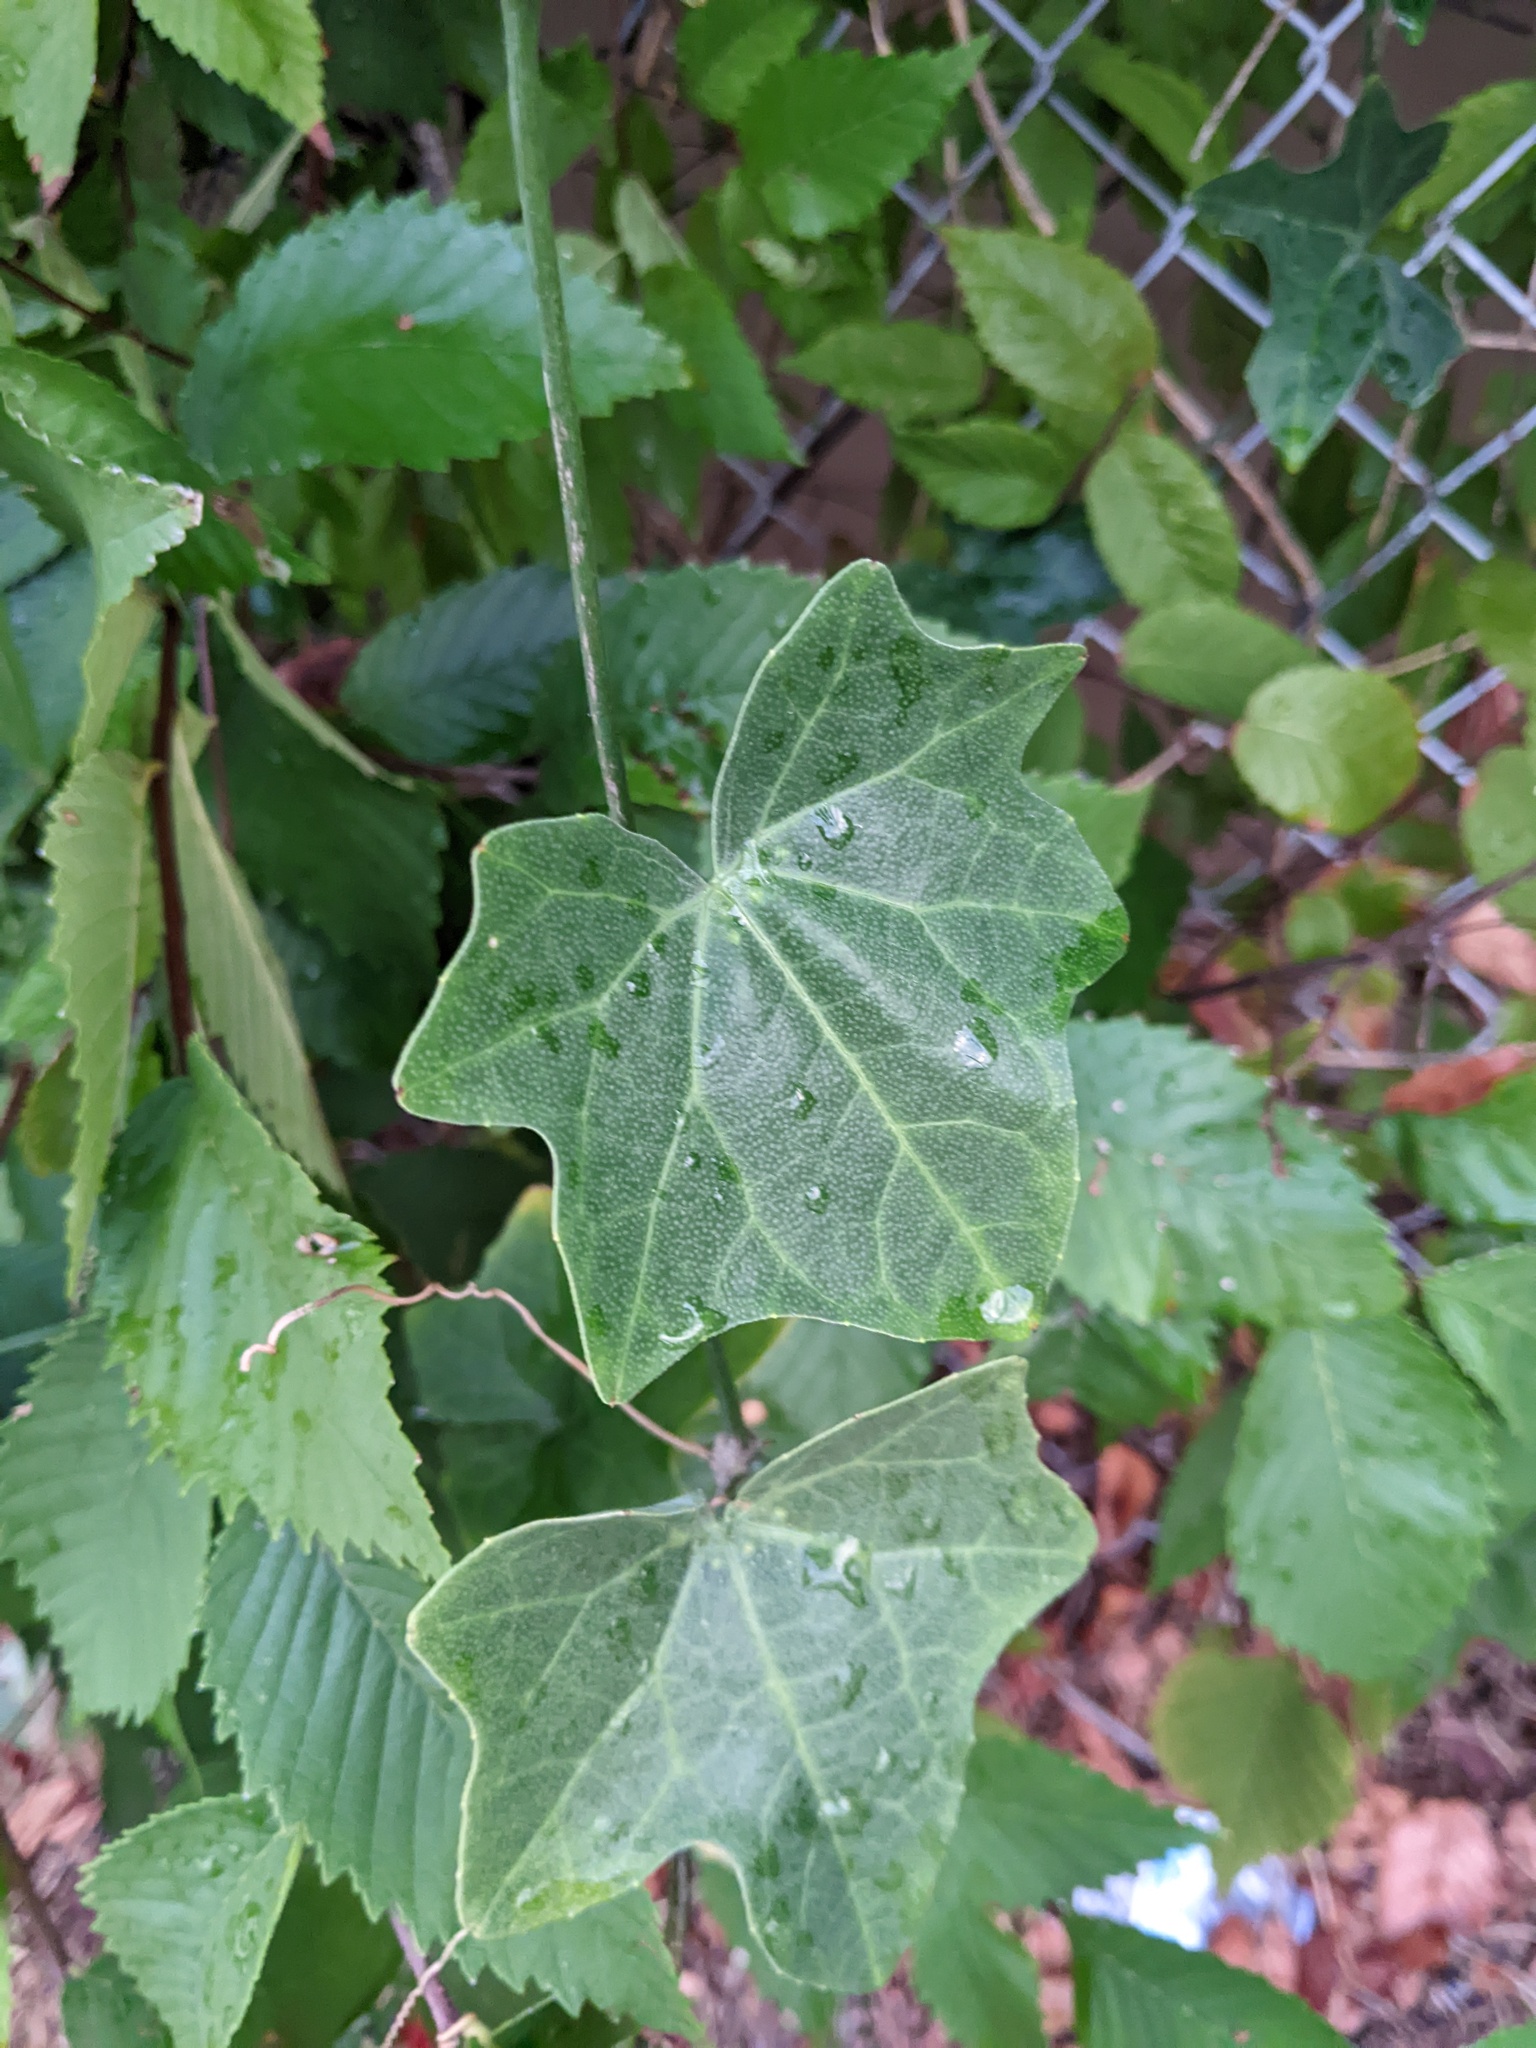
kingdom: Plantae
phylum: Tracheophyta
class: Magnoliopsida
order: Cucurbitales
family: Cucurbitaceae
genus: Coccinia
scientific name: Coccinia grandis
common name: Ivy gourd
